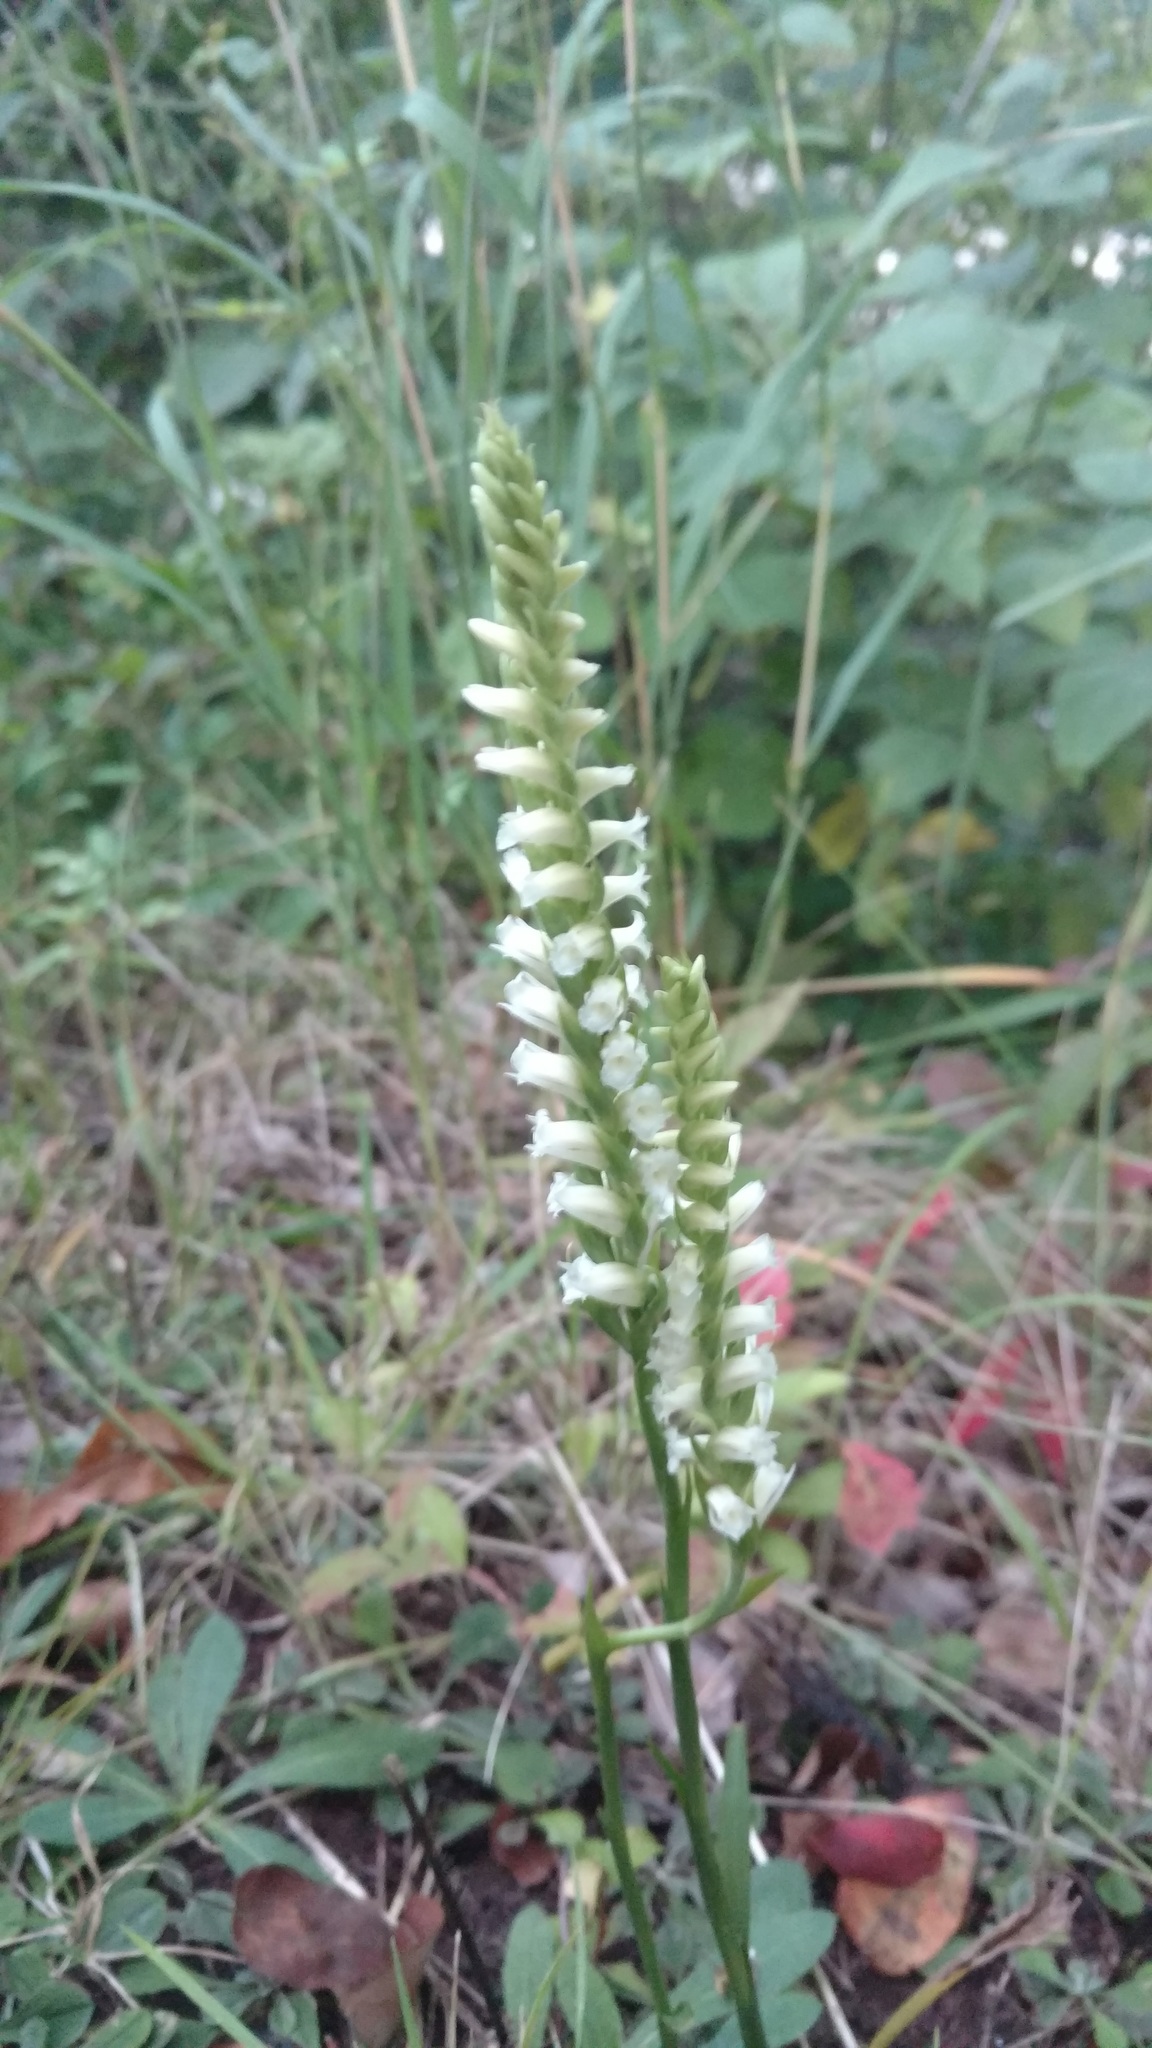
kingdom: Plantae
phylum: Tracheophyta
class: Liliopsida
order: Asparagales
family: Orchidaceae
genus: Spiranthes
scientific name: Spiranthes ochroleuca
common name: Yellow ladies'-tresses
